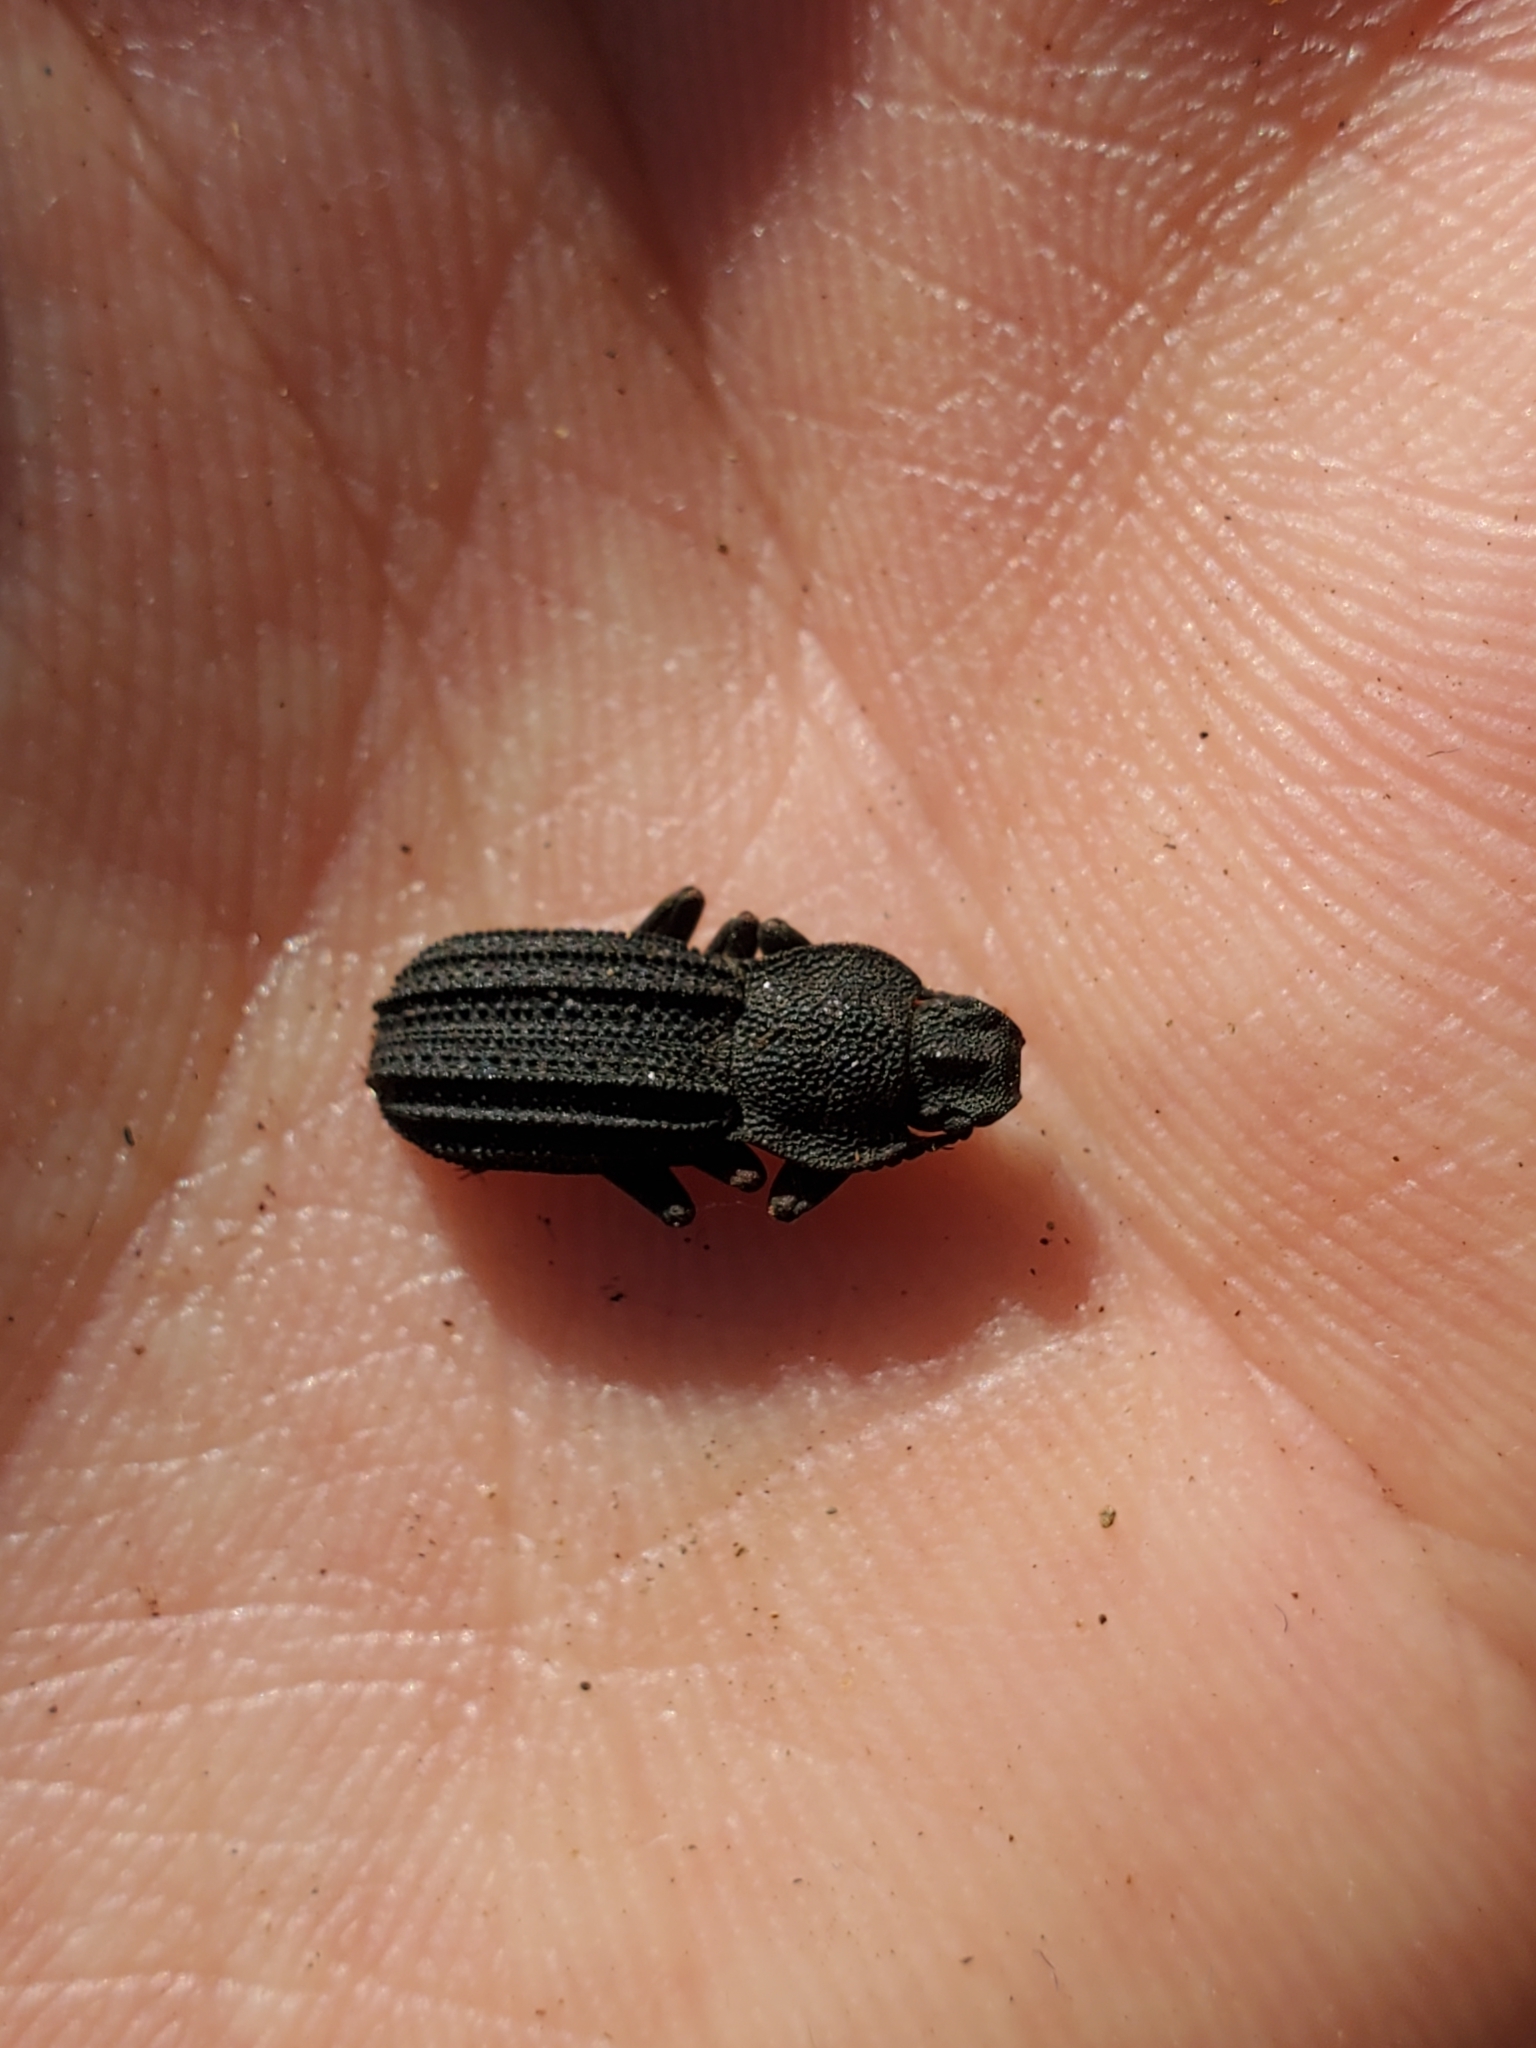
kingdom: Animalia
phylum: Arthropoda
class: Insecta
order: Coleoptera
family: Tenebrionidae
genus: Nyctoporis
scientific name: Nyctoporis carinata
